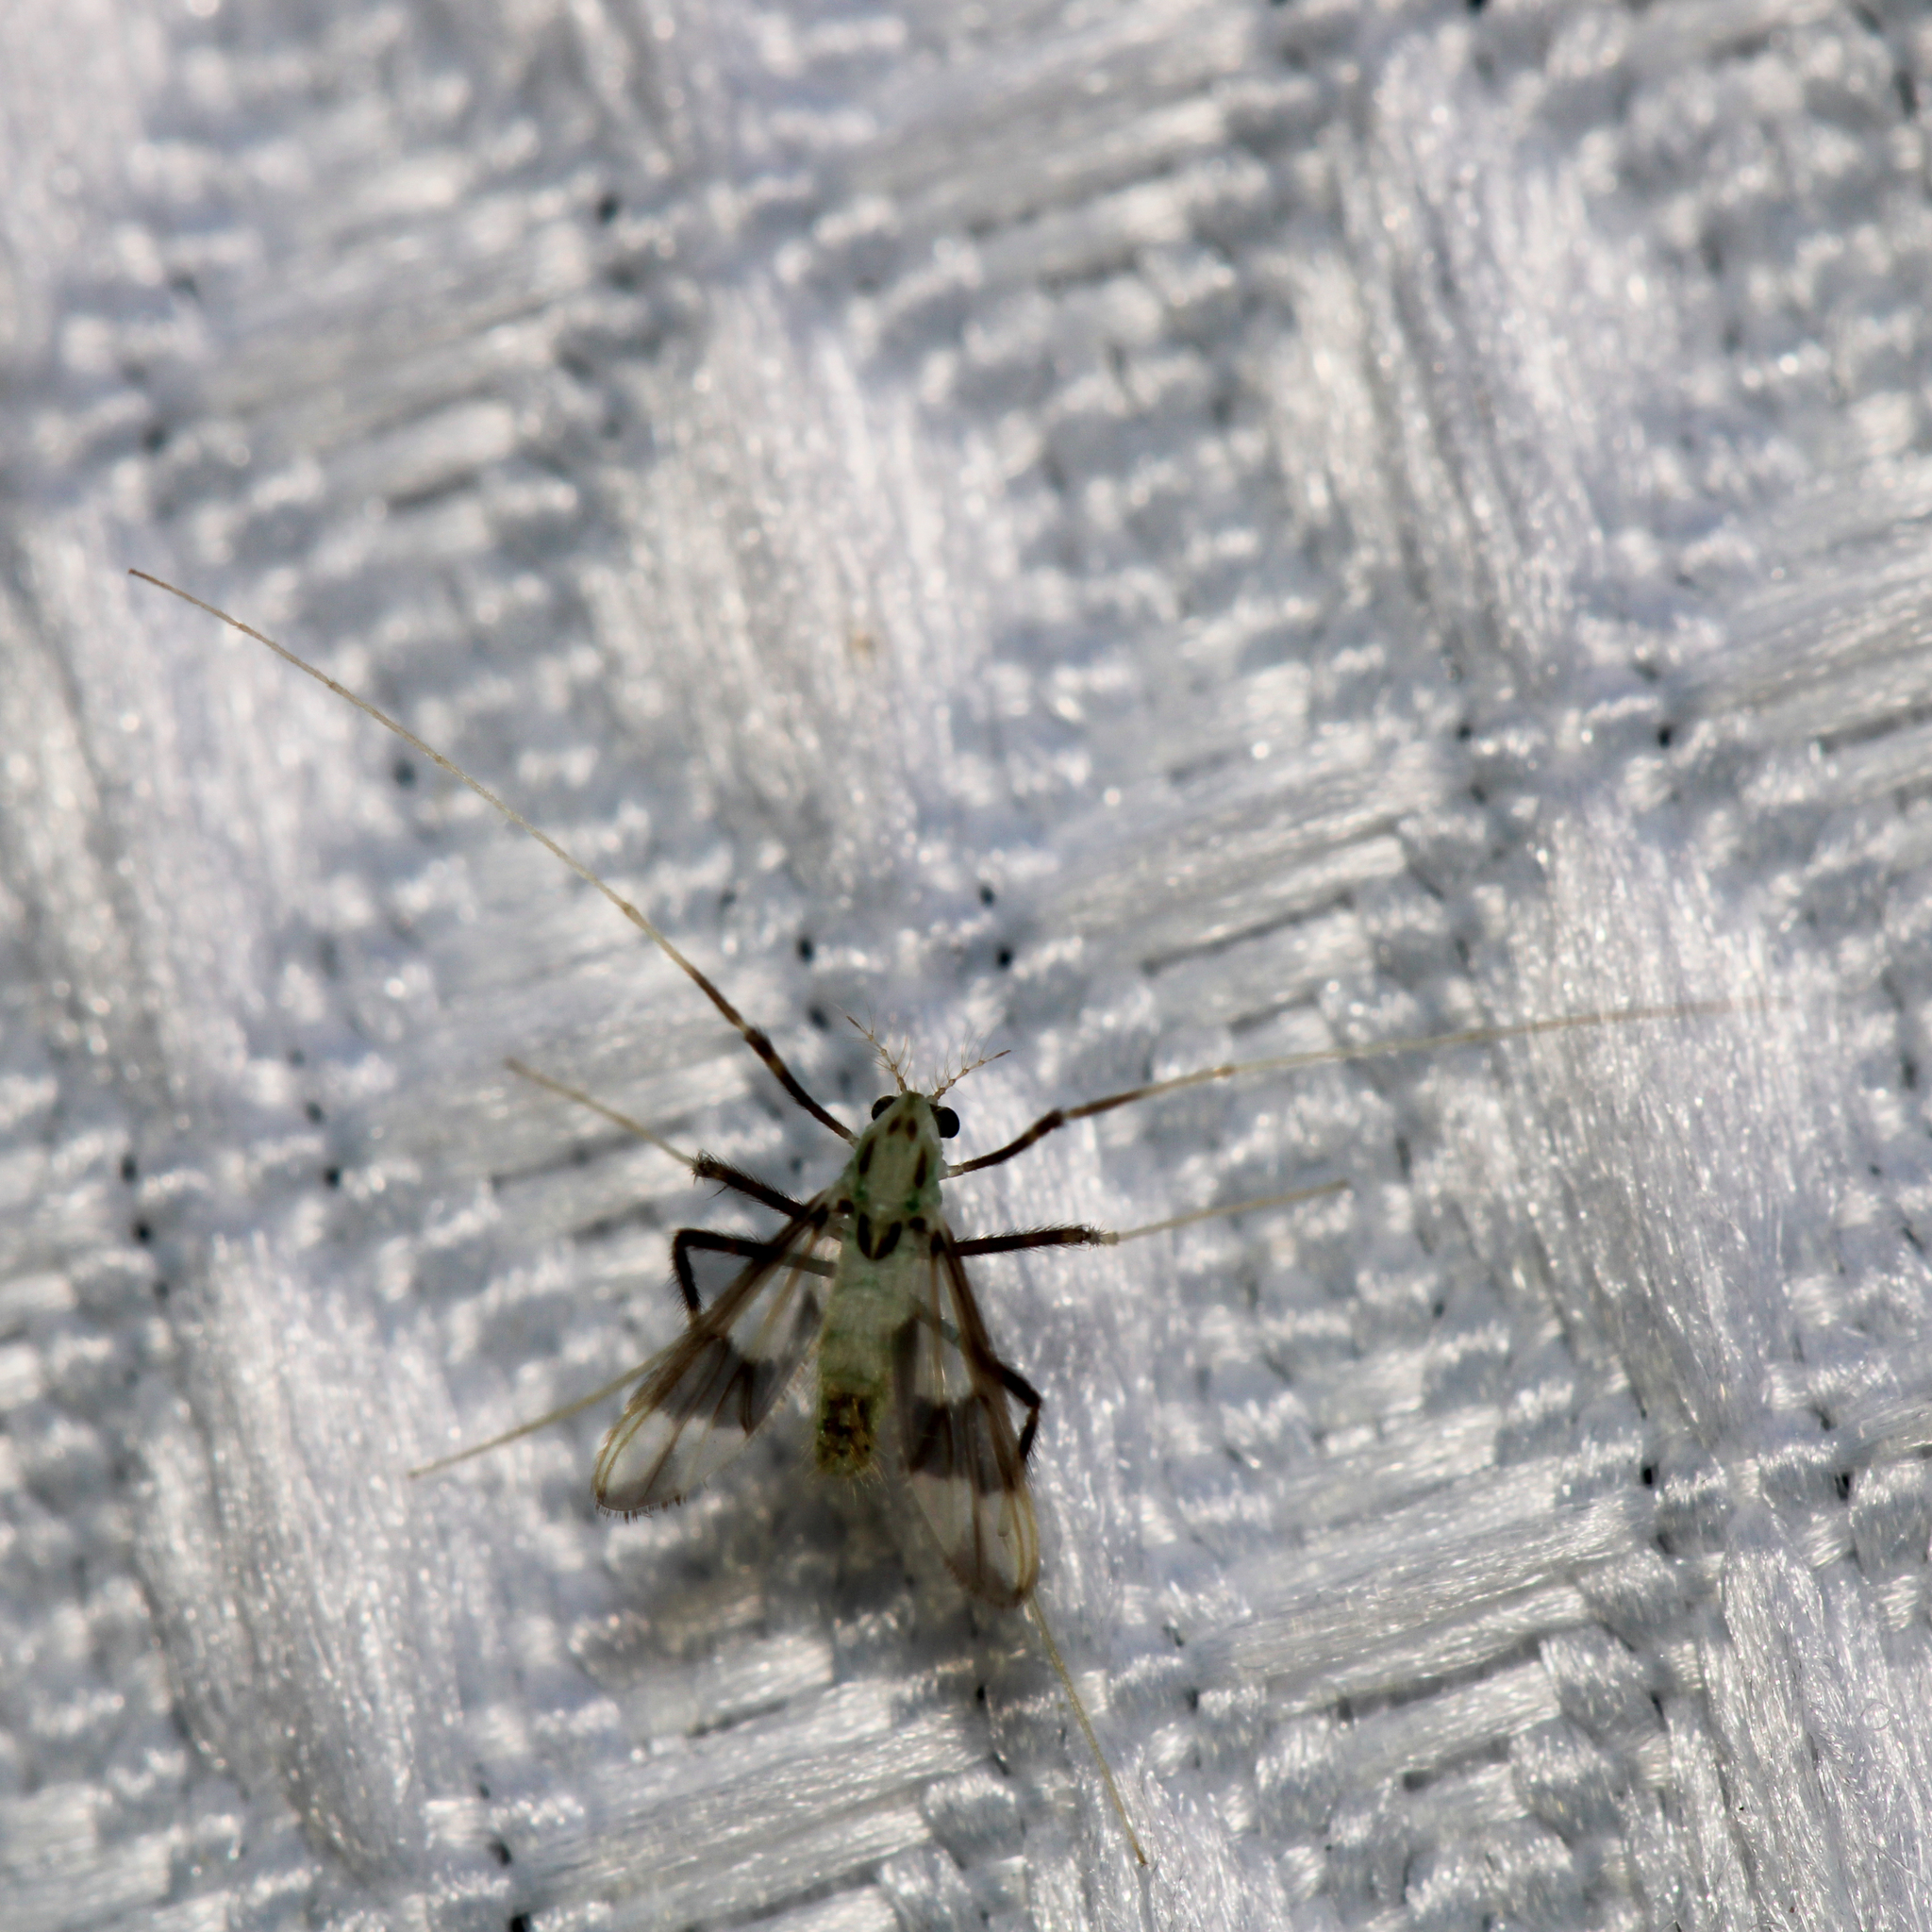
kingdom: Animalia
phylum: Arthropoda
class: Insecta
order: Diptera
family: Chironomidae
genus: Stenochironomus
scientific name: Stenochironomus poecilopterus
